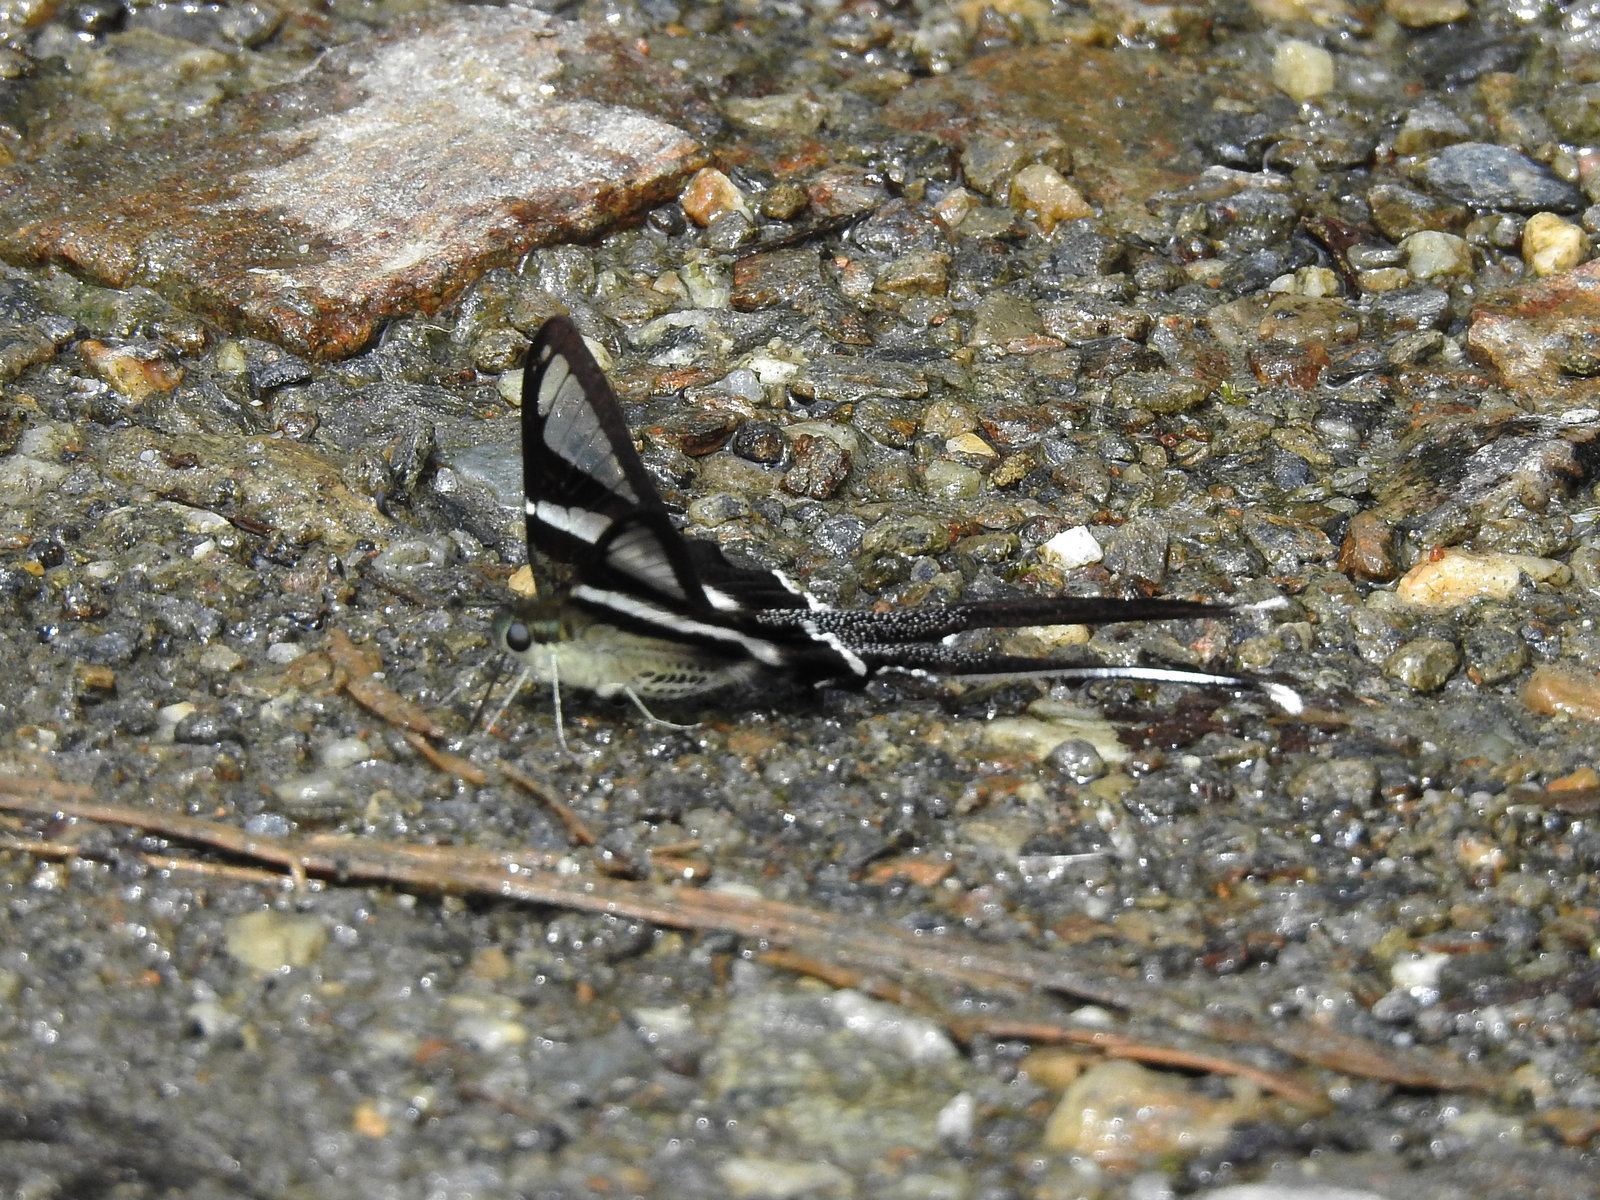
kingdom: Animalia
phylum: Arthropoda
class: Insecta
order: Lepidoptera
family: Papilionidae
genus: Lamproptera
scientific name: Lamproptera curius
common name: White dragontail
